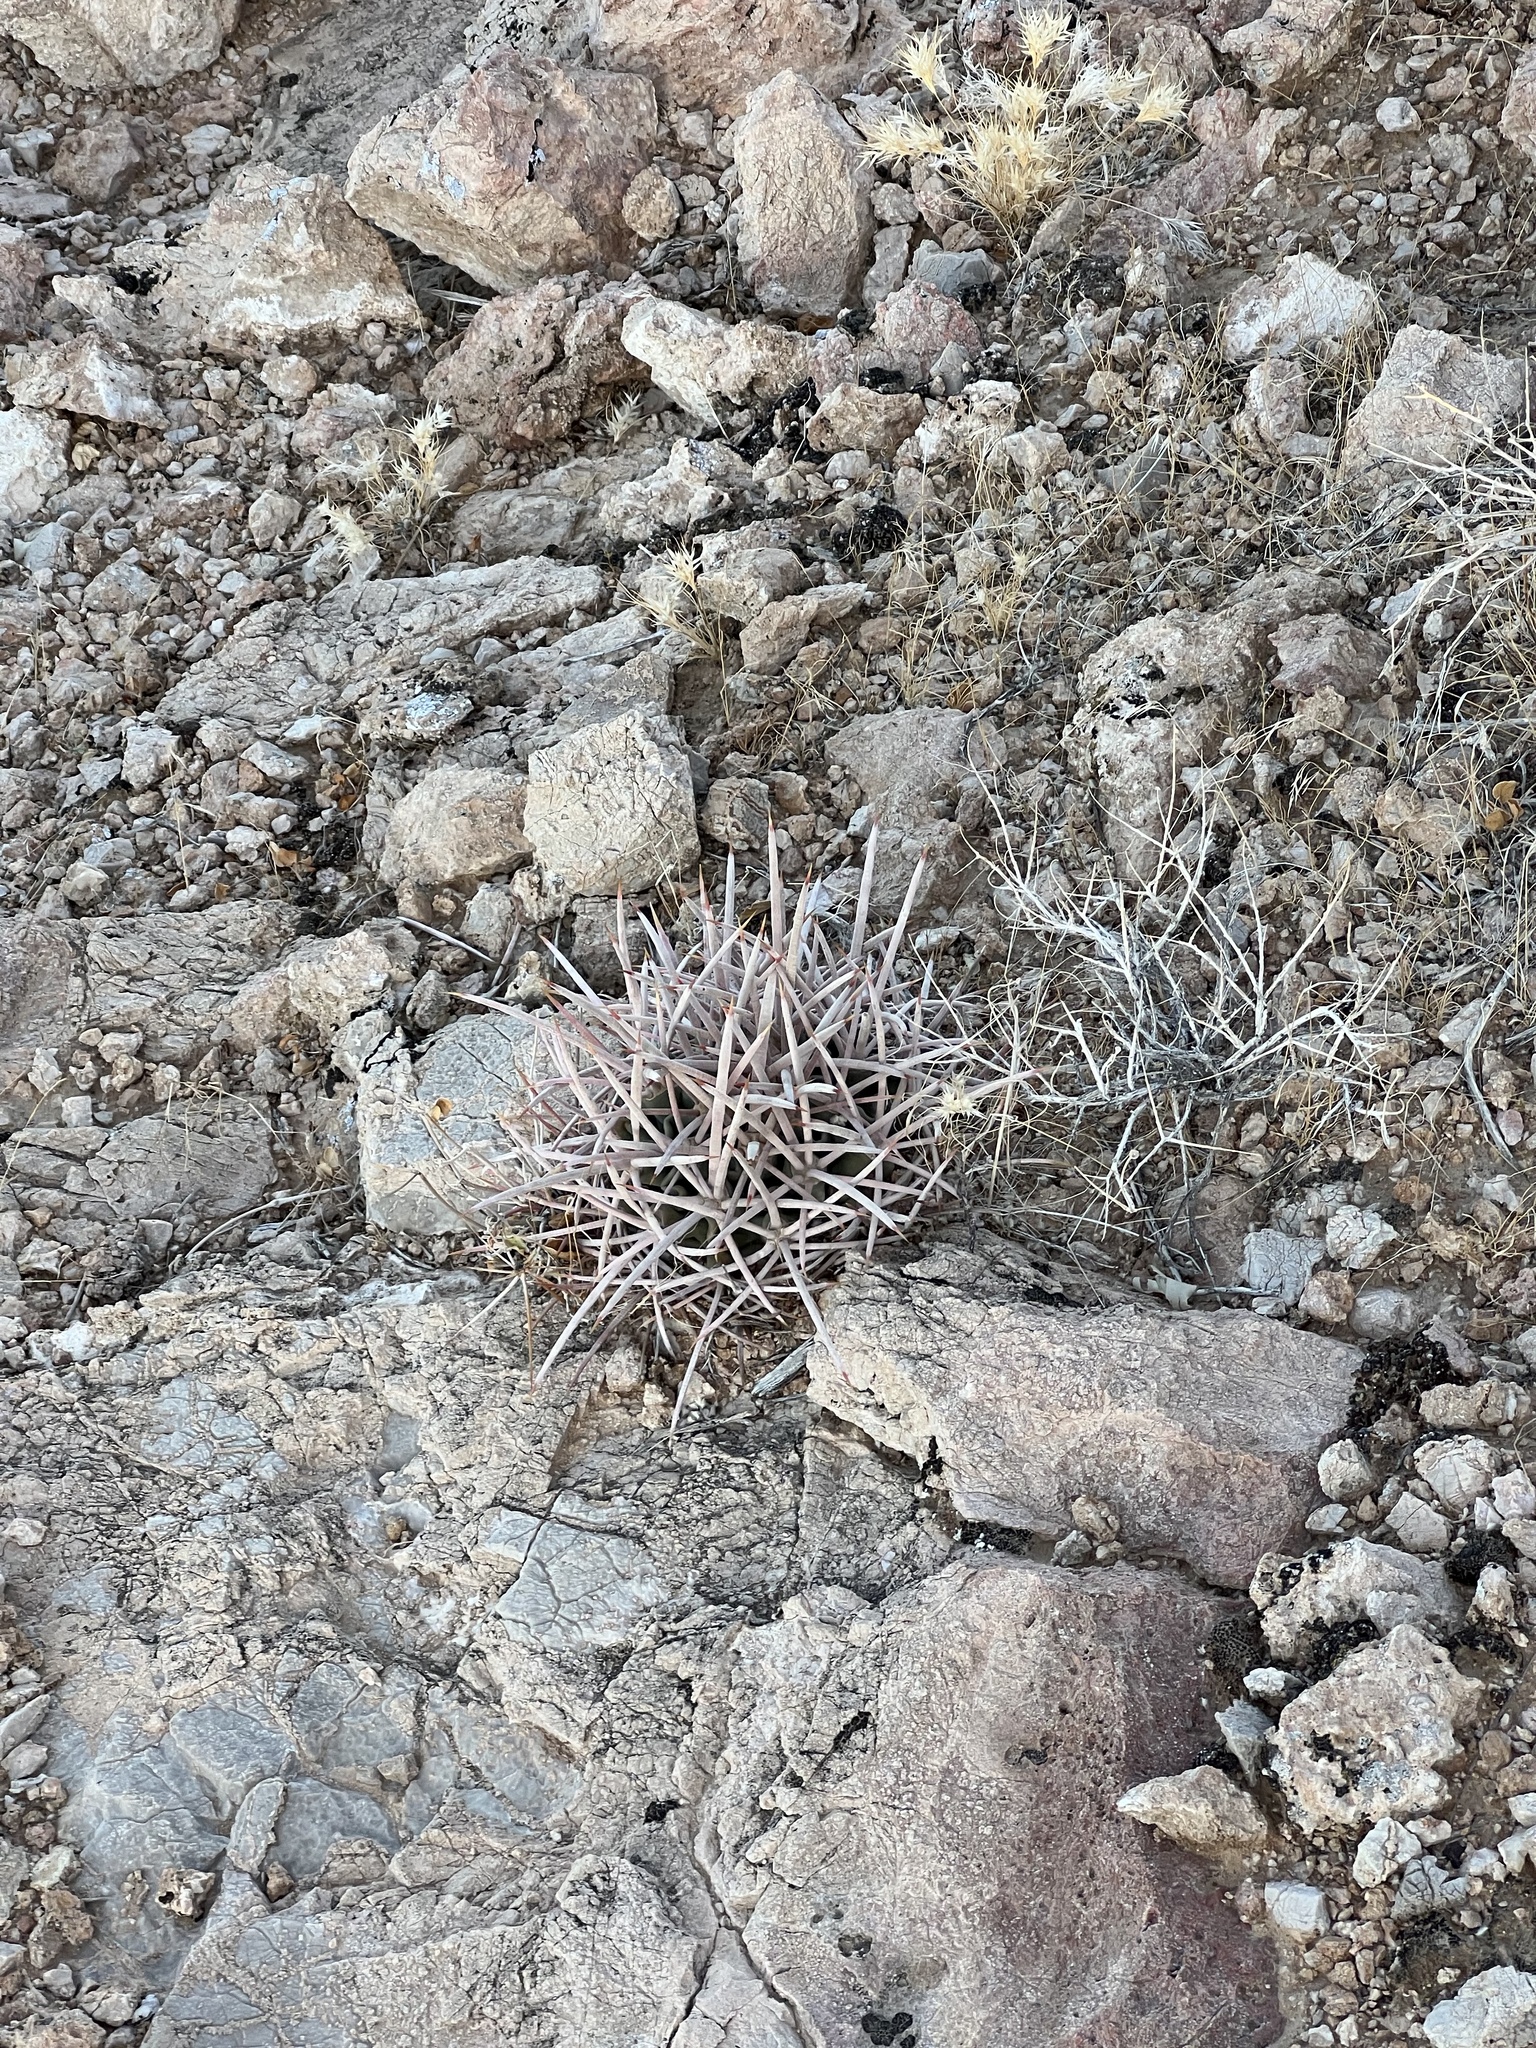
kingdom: Plantae
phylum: Tracheophyta
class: Magnoliopsida
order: Caryophyllales
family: Cactaceae
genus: Echinocactus
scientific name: Echinocactus polycephalus
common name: Cottontop cactus
